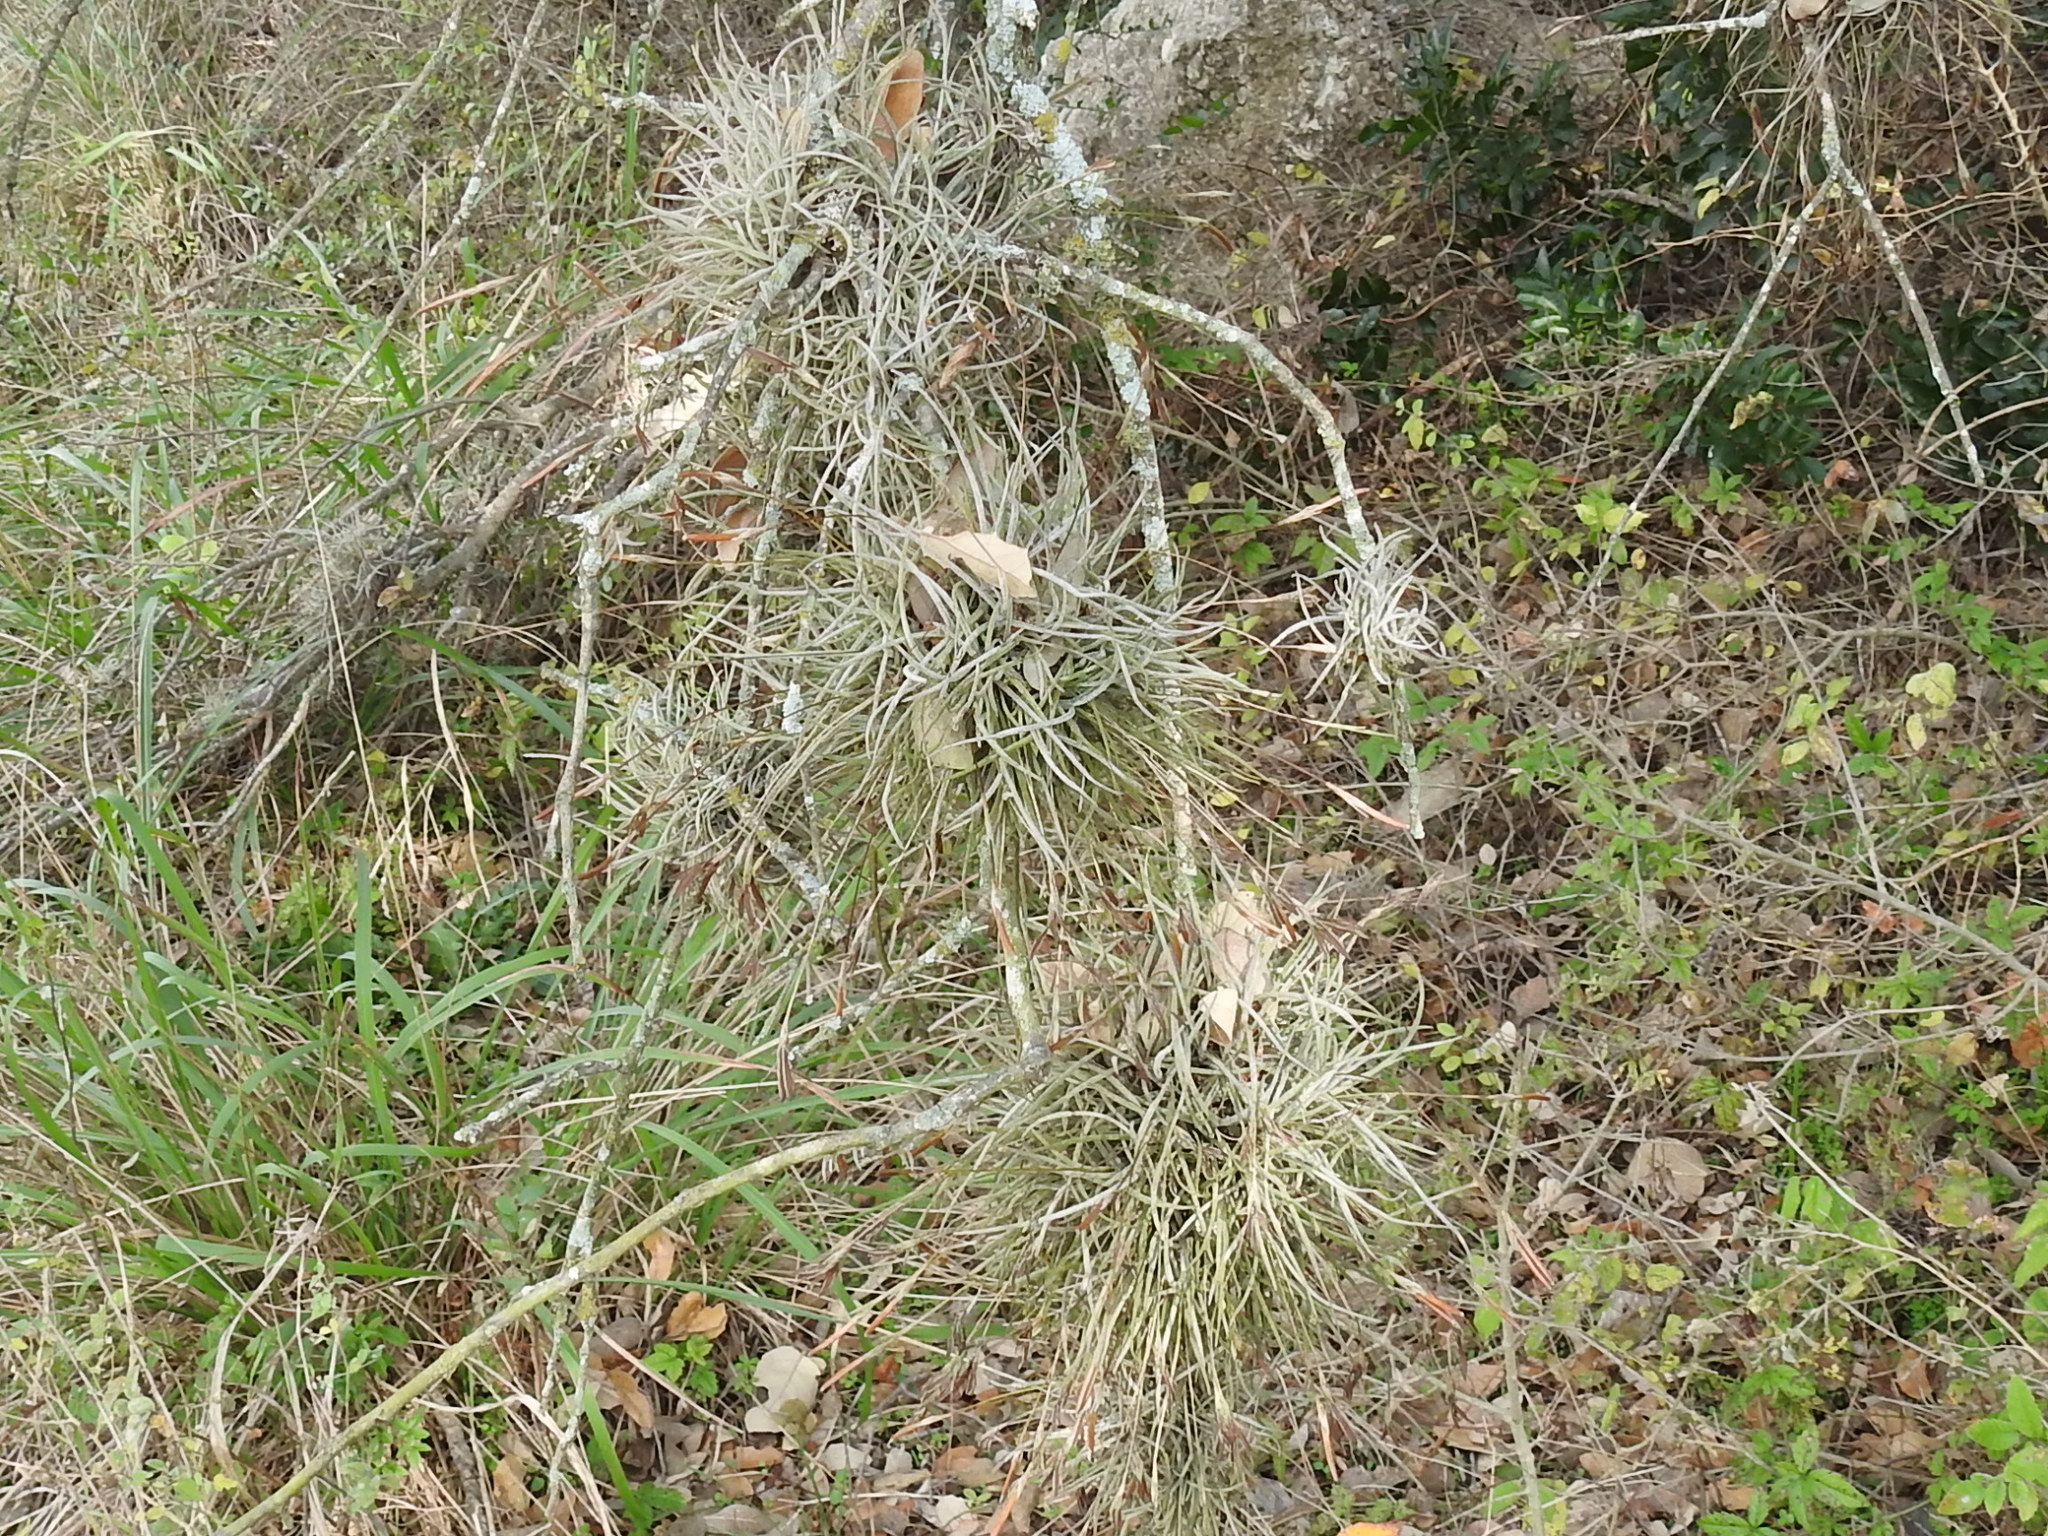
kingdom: Plantae
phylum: Tracheophyta
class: Liliopsida
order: Poales
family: Bromeliaceae
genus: Tillandsia
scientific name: Tillandsia recurvata
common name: Small ballmoss
